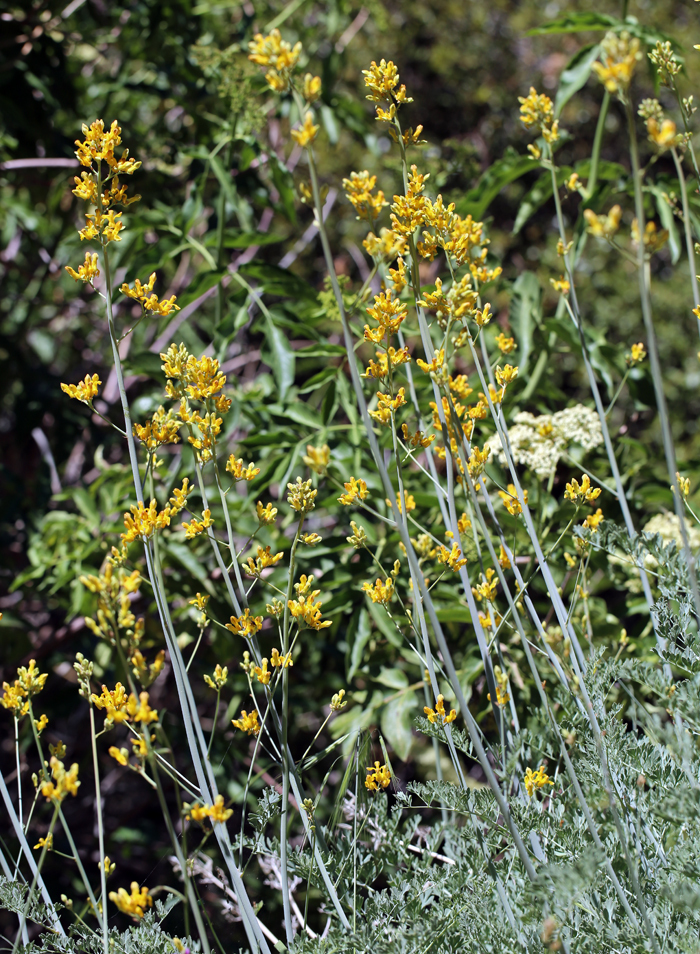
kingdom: Plantae
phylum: Tracheophyta
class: Magnoliopsida
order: Ranunculales
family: Papaveraceae
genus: Ehrendorferia
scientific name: Ehrendorferia chrysantha
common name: Golden eardrops
